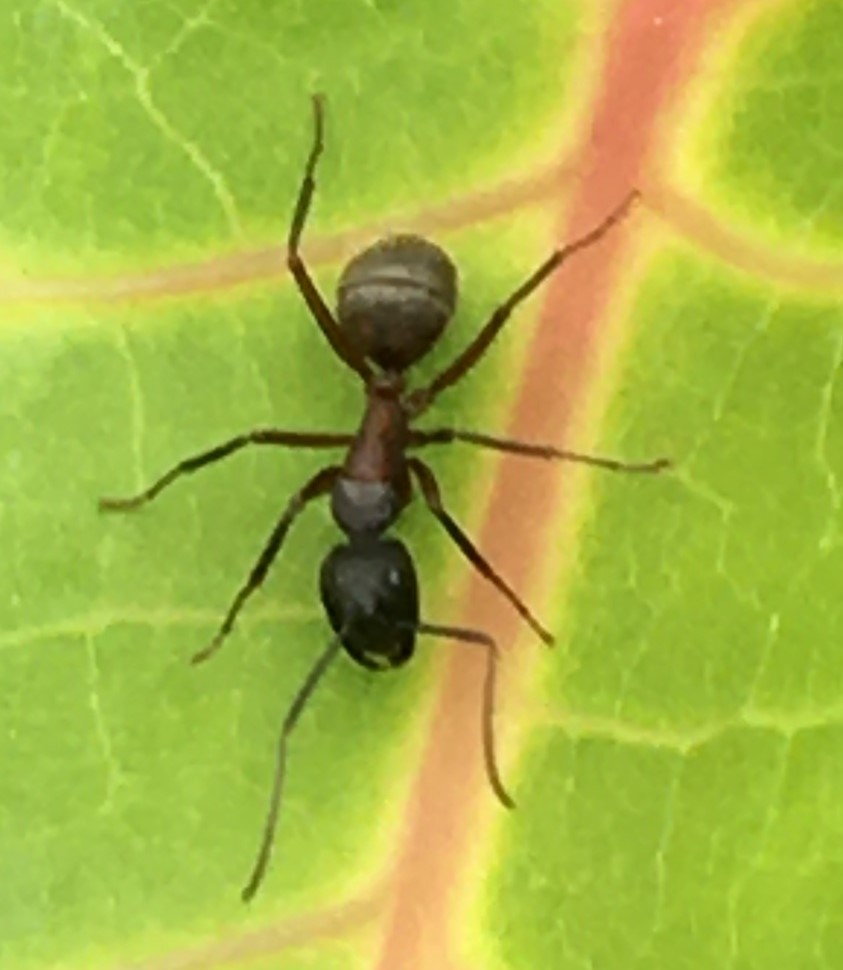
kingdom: Animalia
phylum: Arthropoda
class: Insecta
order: Hymenoptera
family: Formicidae
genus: Camponotus
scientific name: Camponotus chromaiodes
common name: Red carpenter ant
